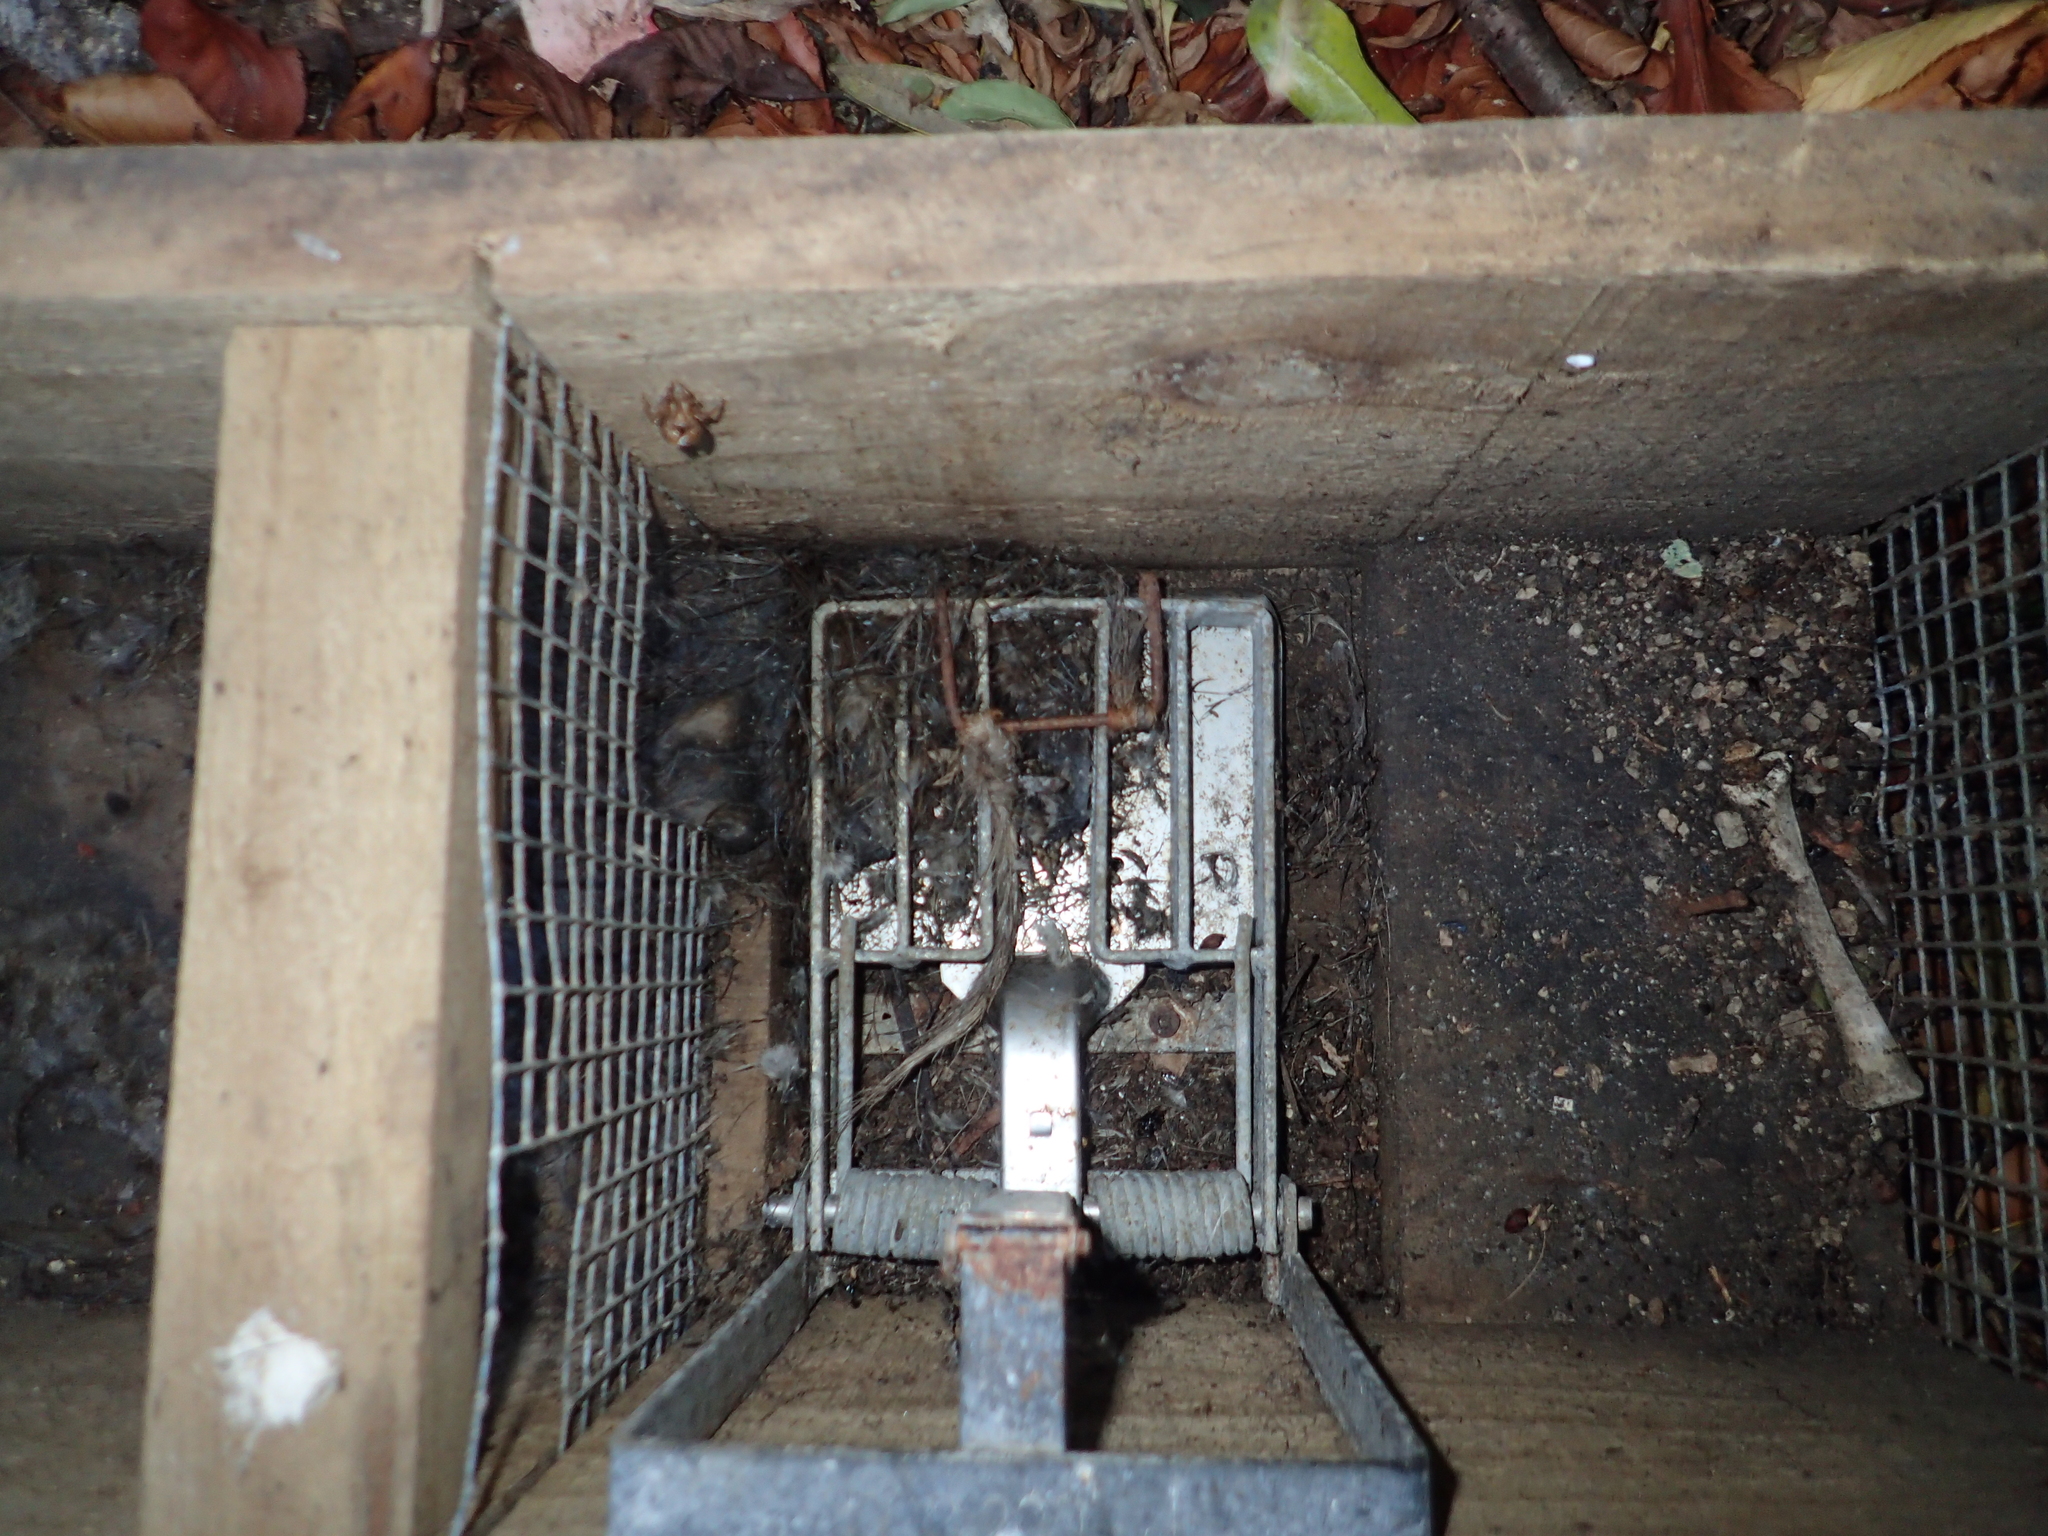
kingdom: Animalia
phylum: Chordata
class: Mammalia
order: Rodentia
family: Muridae
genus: Rattus
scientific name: Rattus
